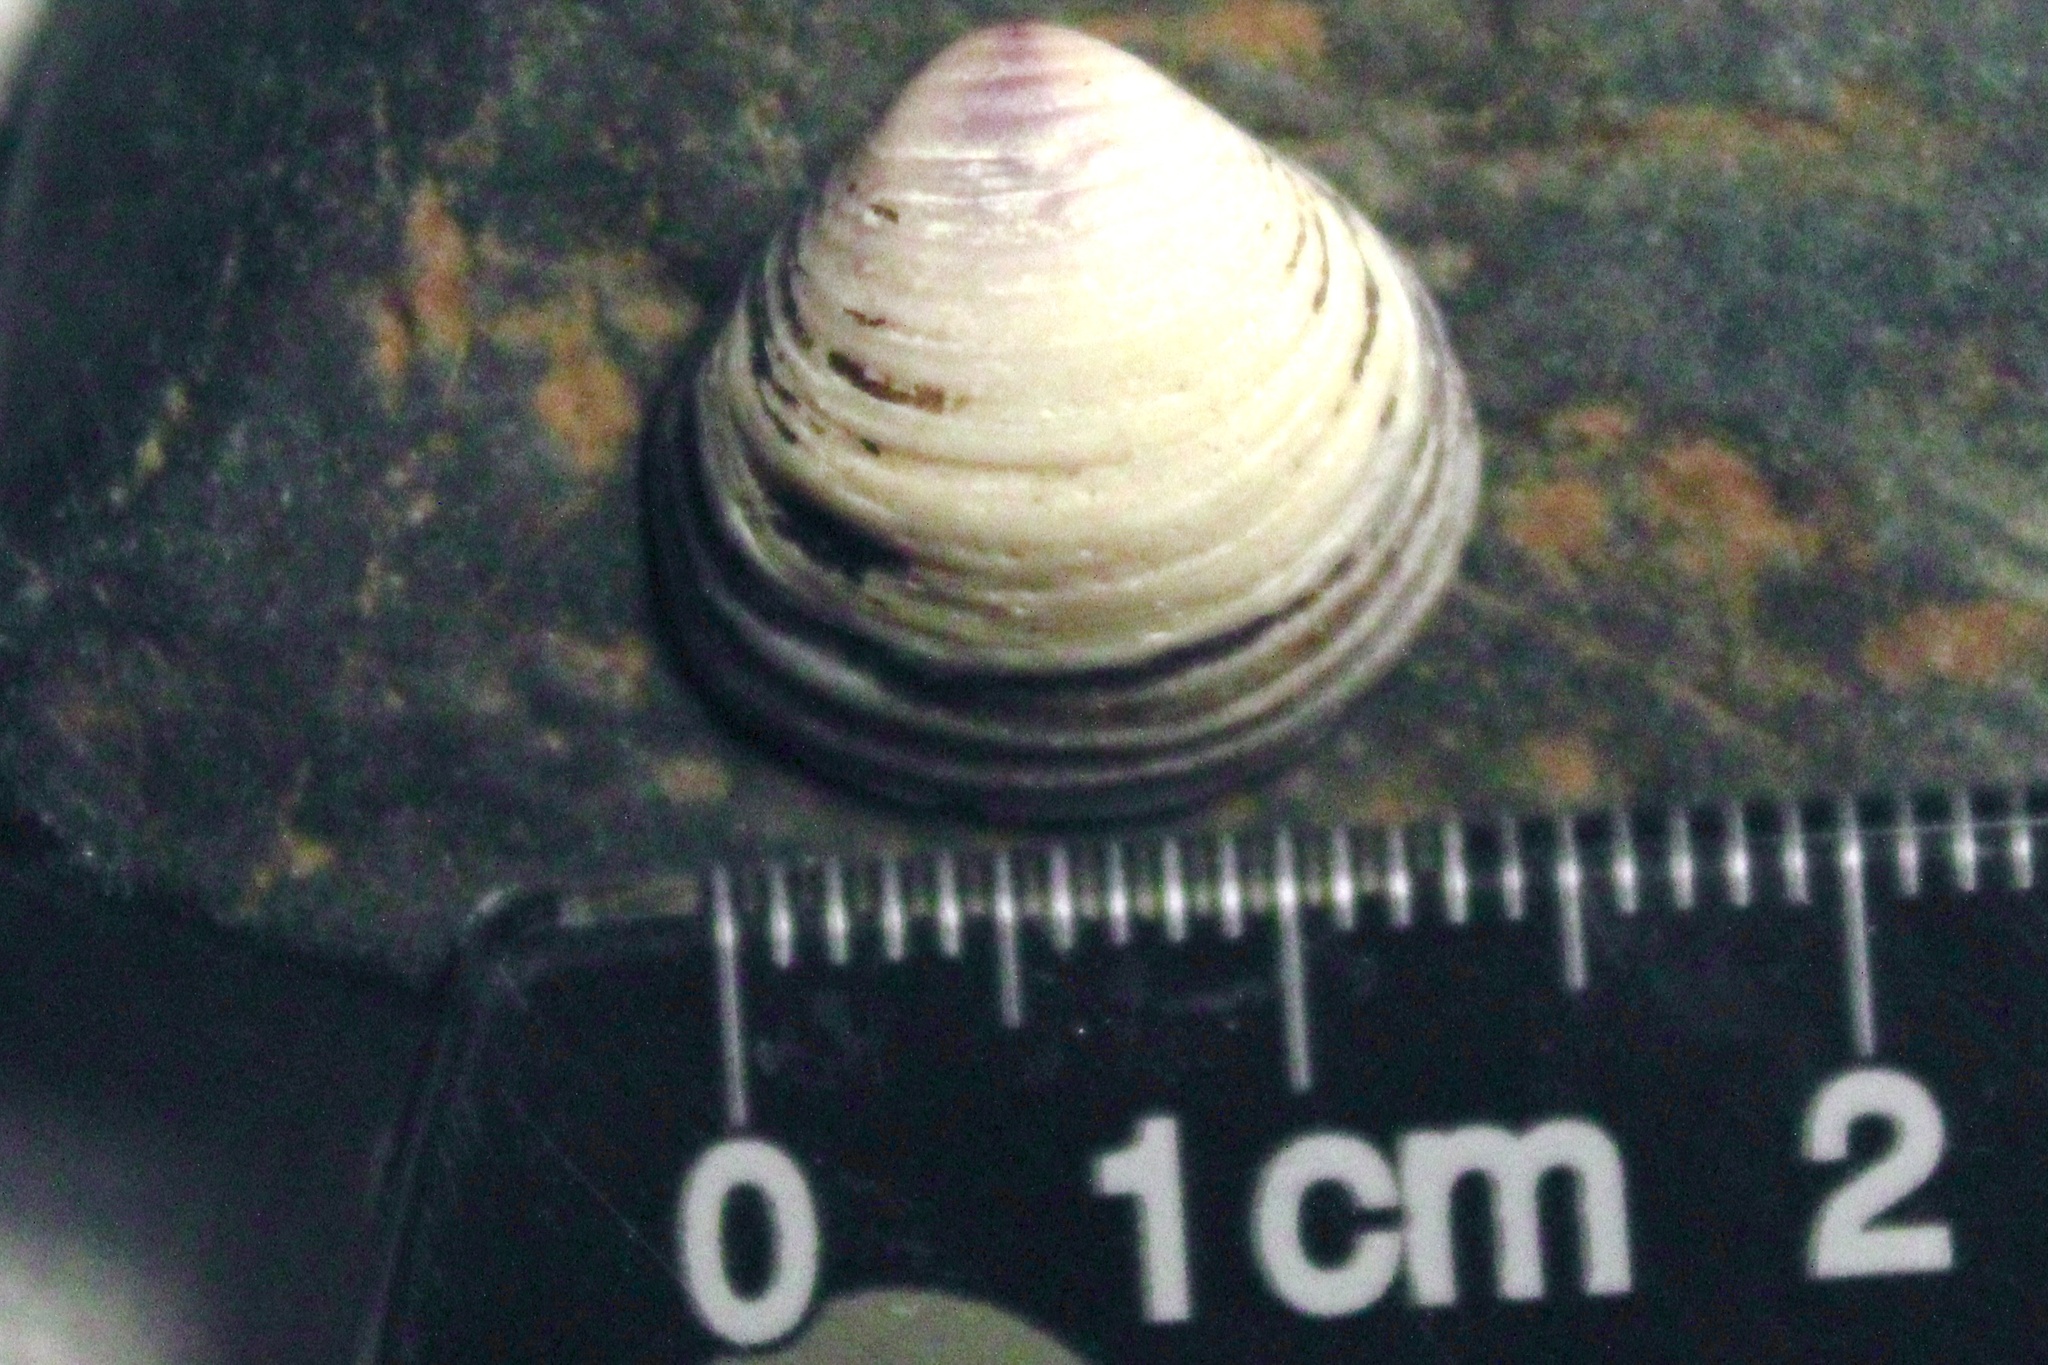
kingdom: Animalia
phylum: Mollusca
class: Bivalvia
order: Venerida
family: Cyrenidae
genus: Corbicula
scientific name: Corbicula
